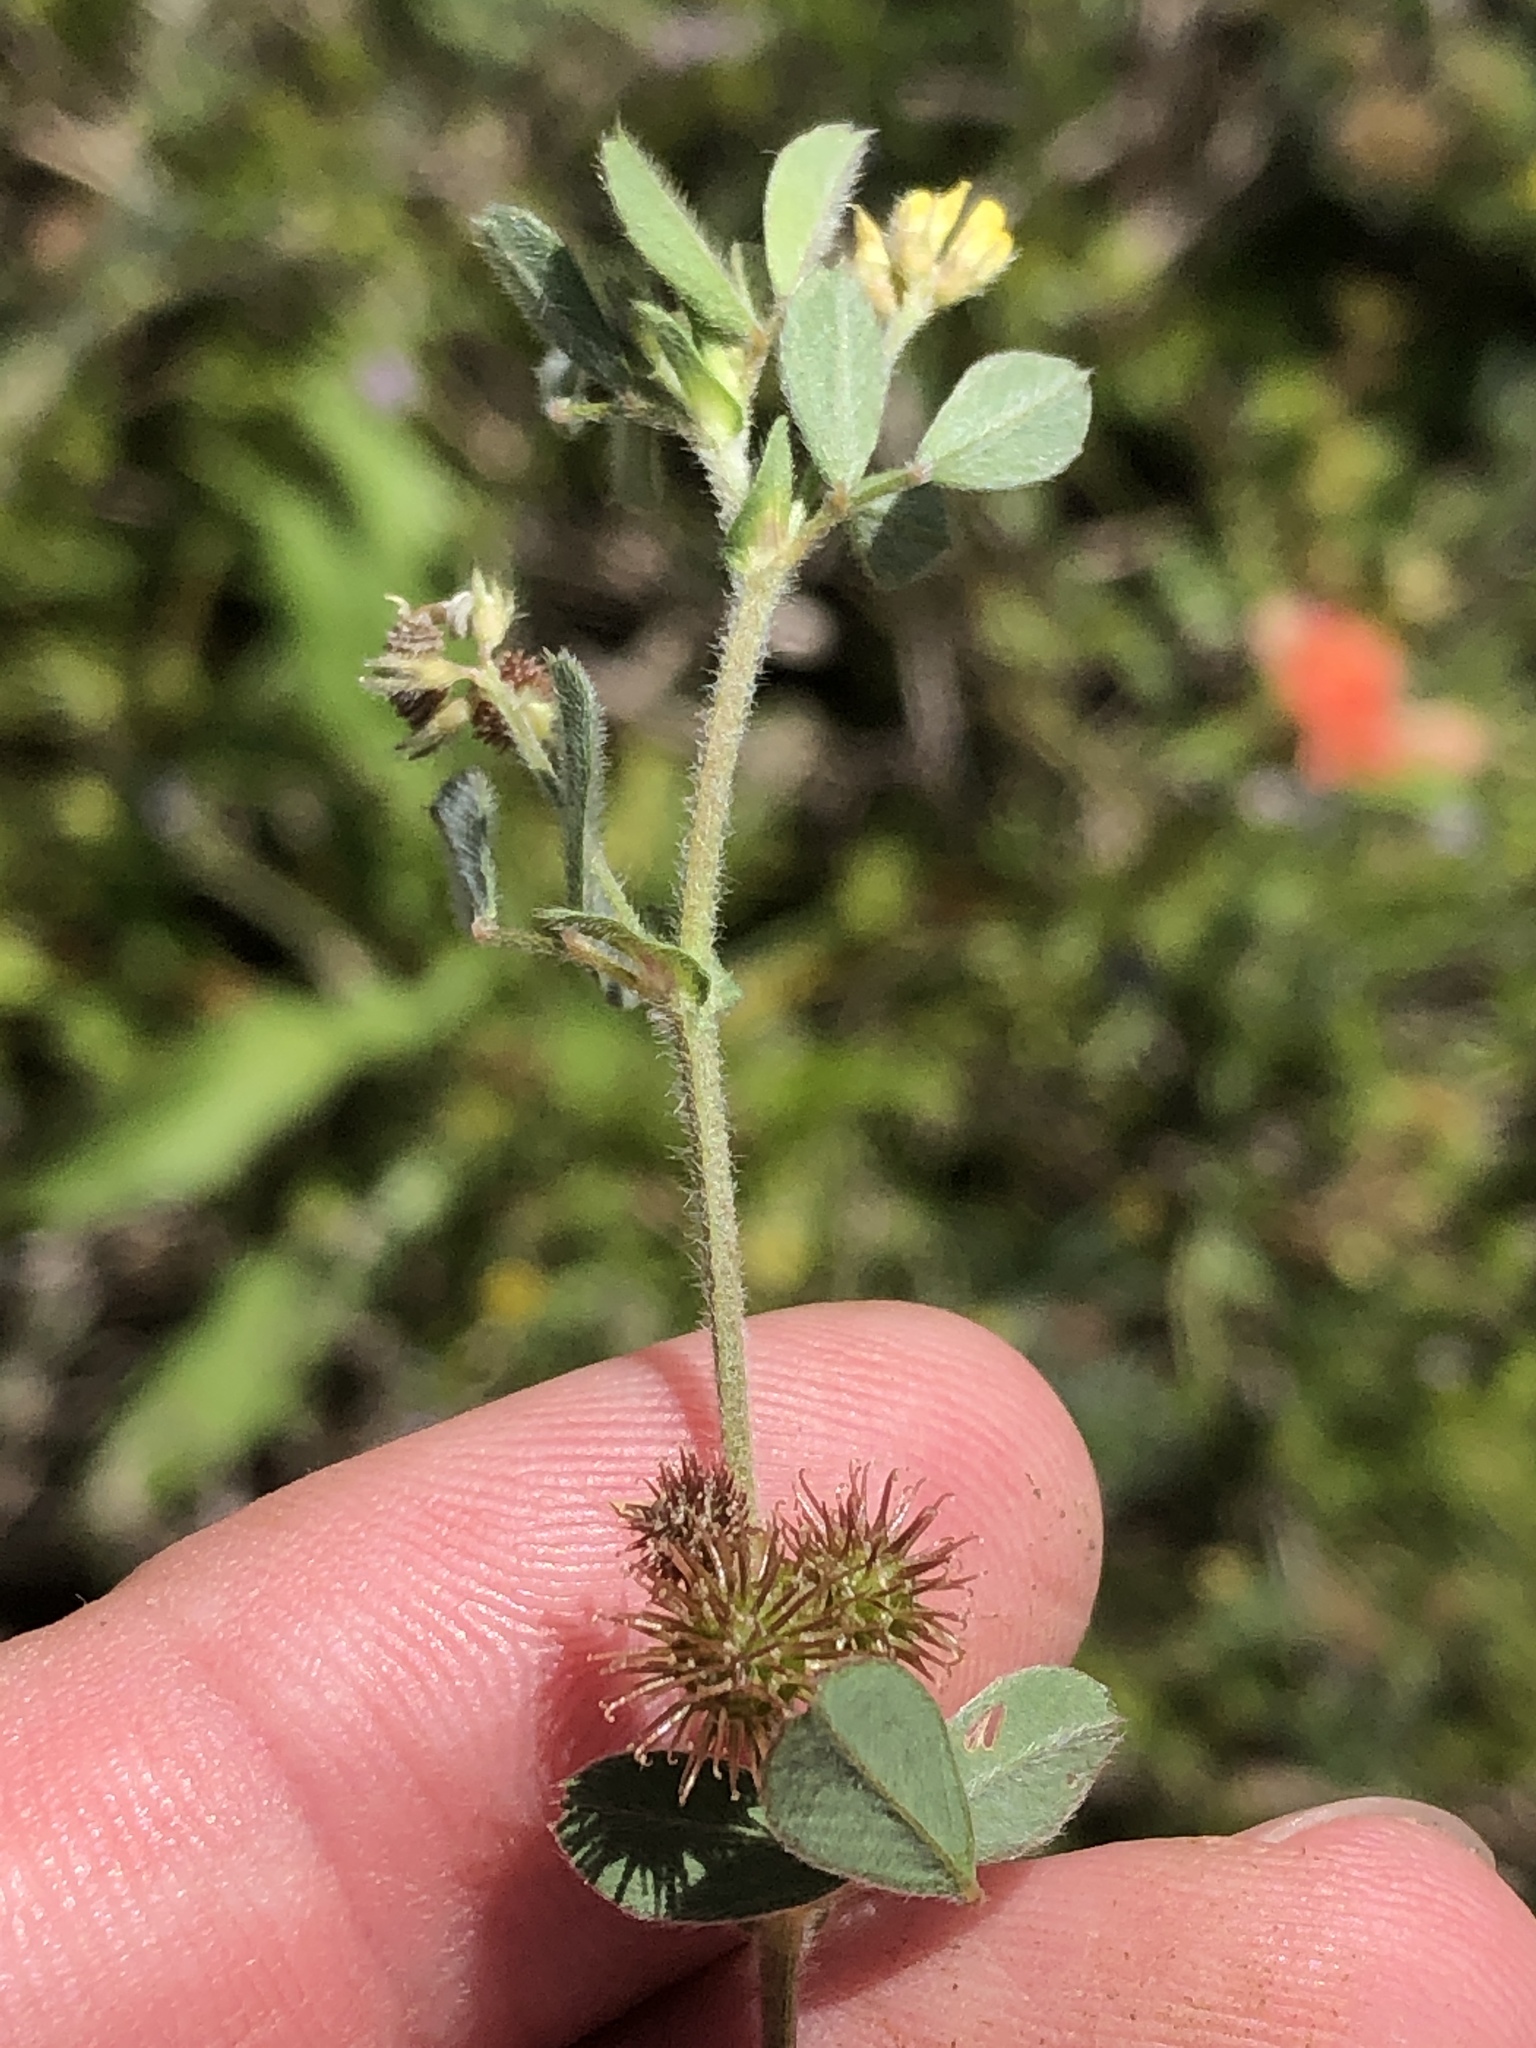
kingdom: Plantae
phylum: Tracheophyta
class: Magnoliopsida
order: Fabales
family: Fabaceae
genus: Medicago
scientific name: Medicago minima
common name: Little bur-clover
